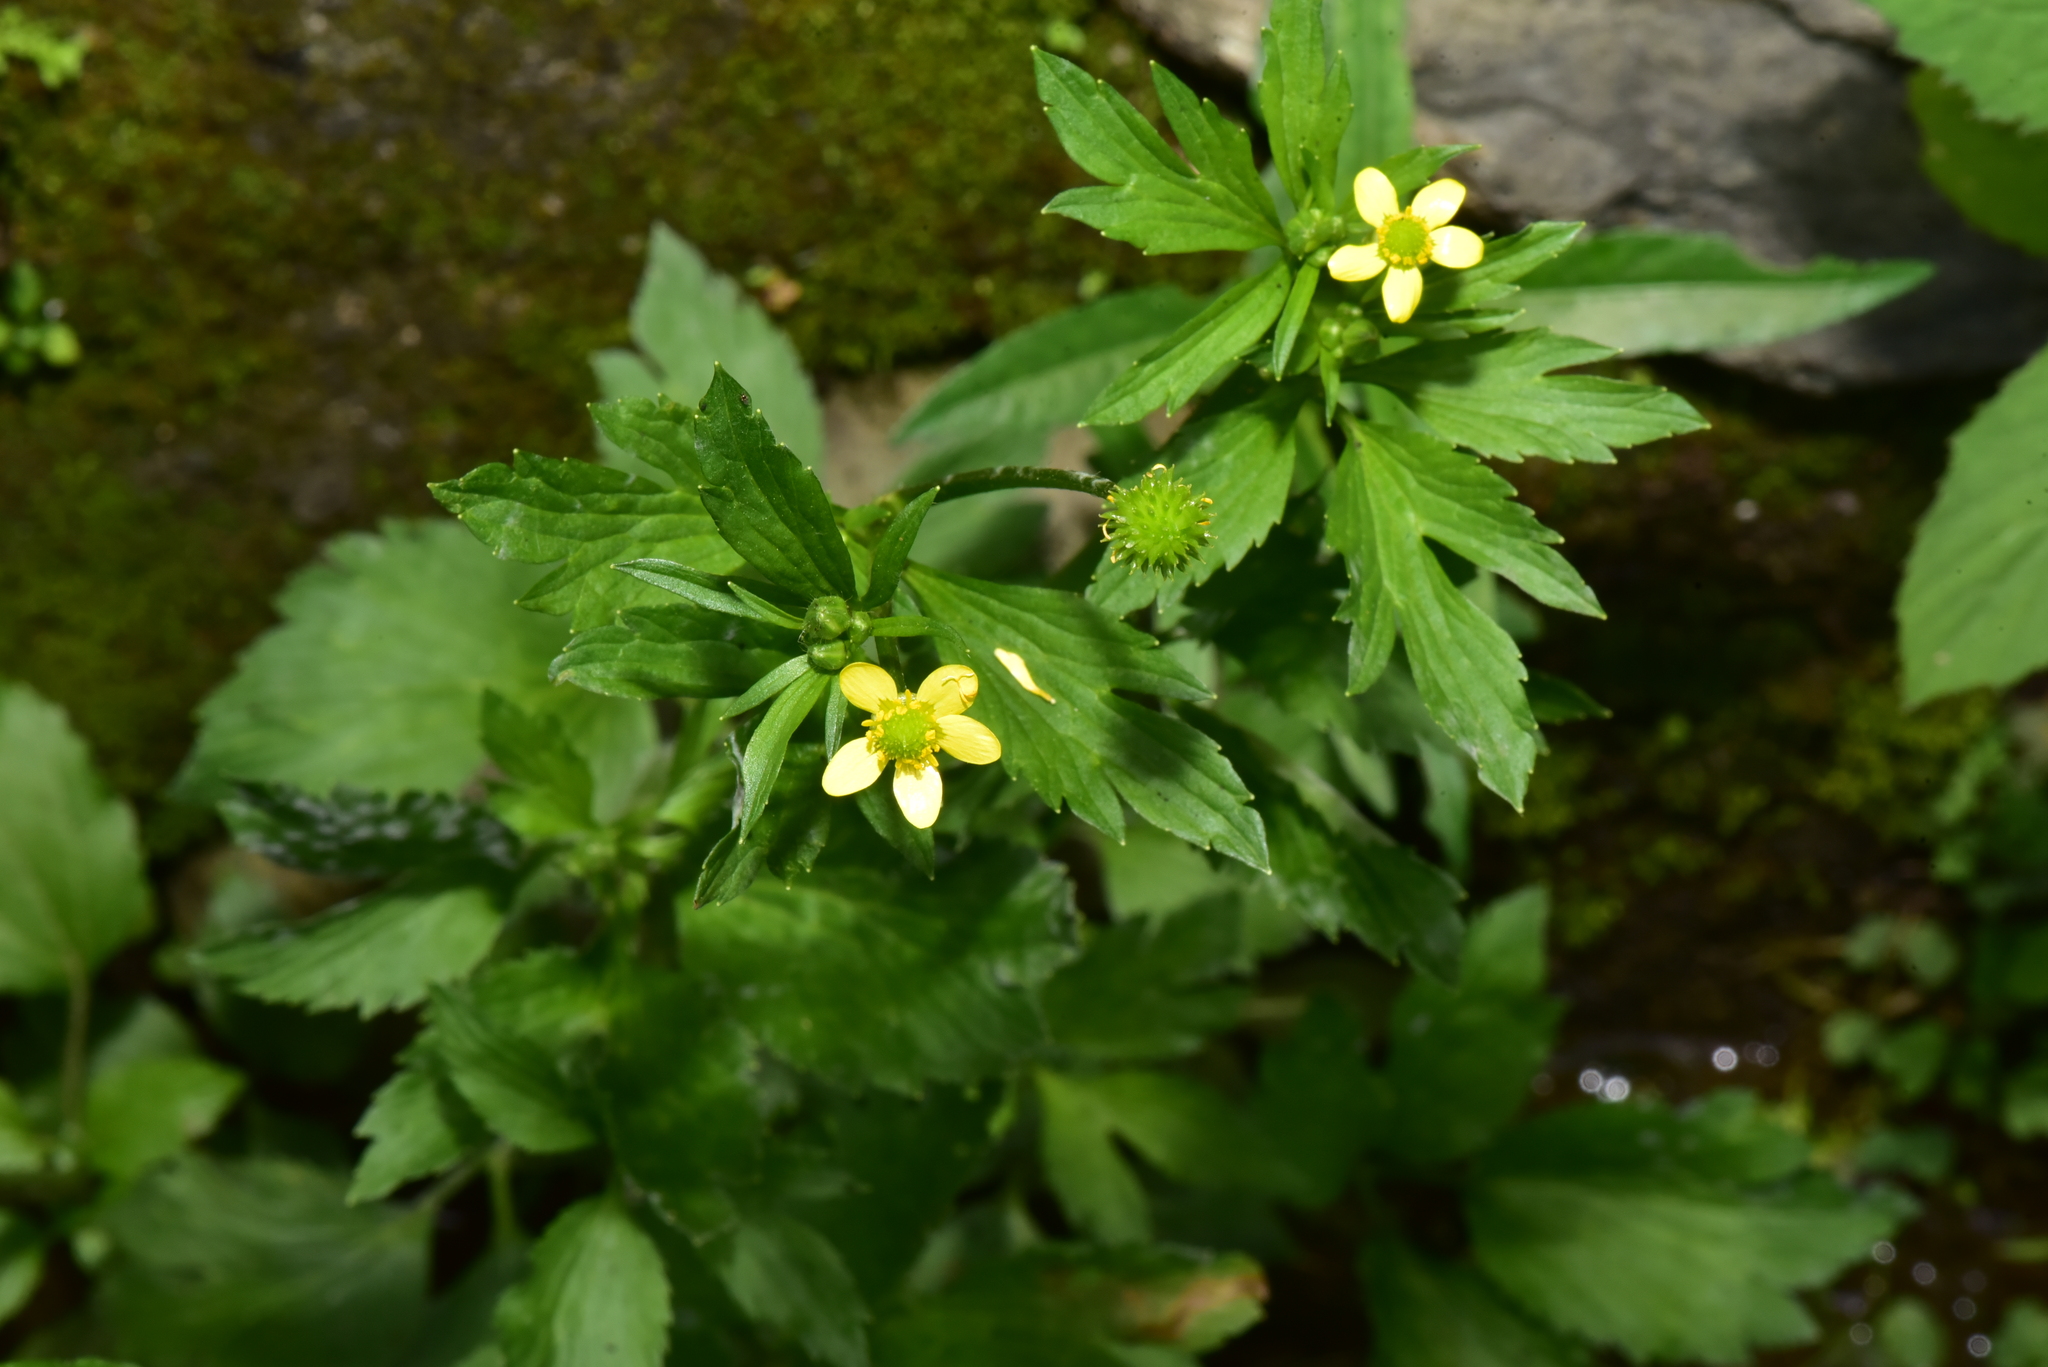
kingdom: Plantae
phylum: Tracheophyta
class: Magnoliopsida
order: Ranunculales
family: Ranunculaceae
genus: Ranunculus
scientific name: Ranunculus cantoniensis
